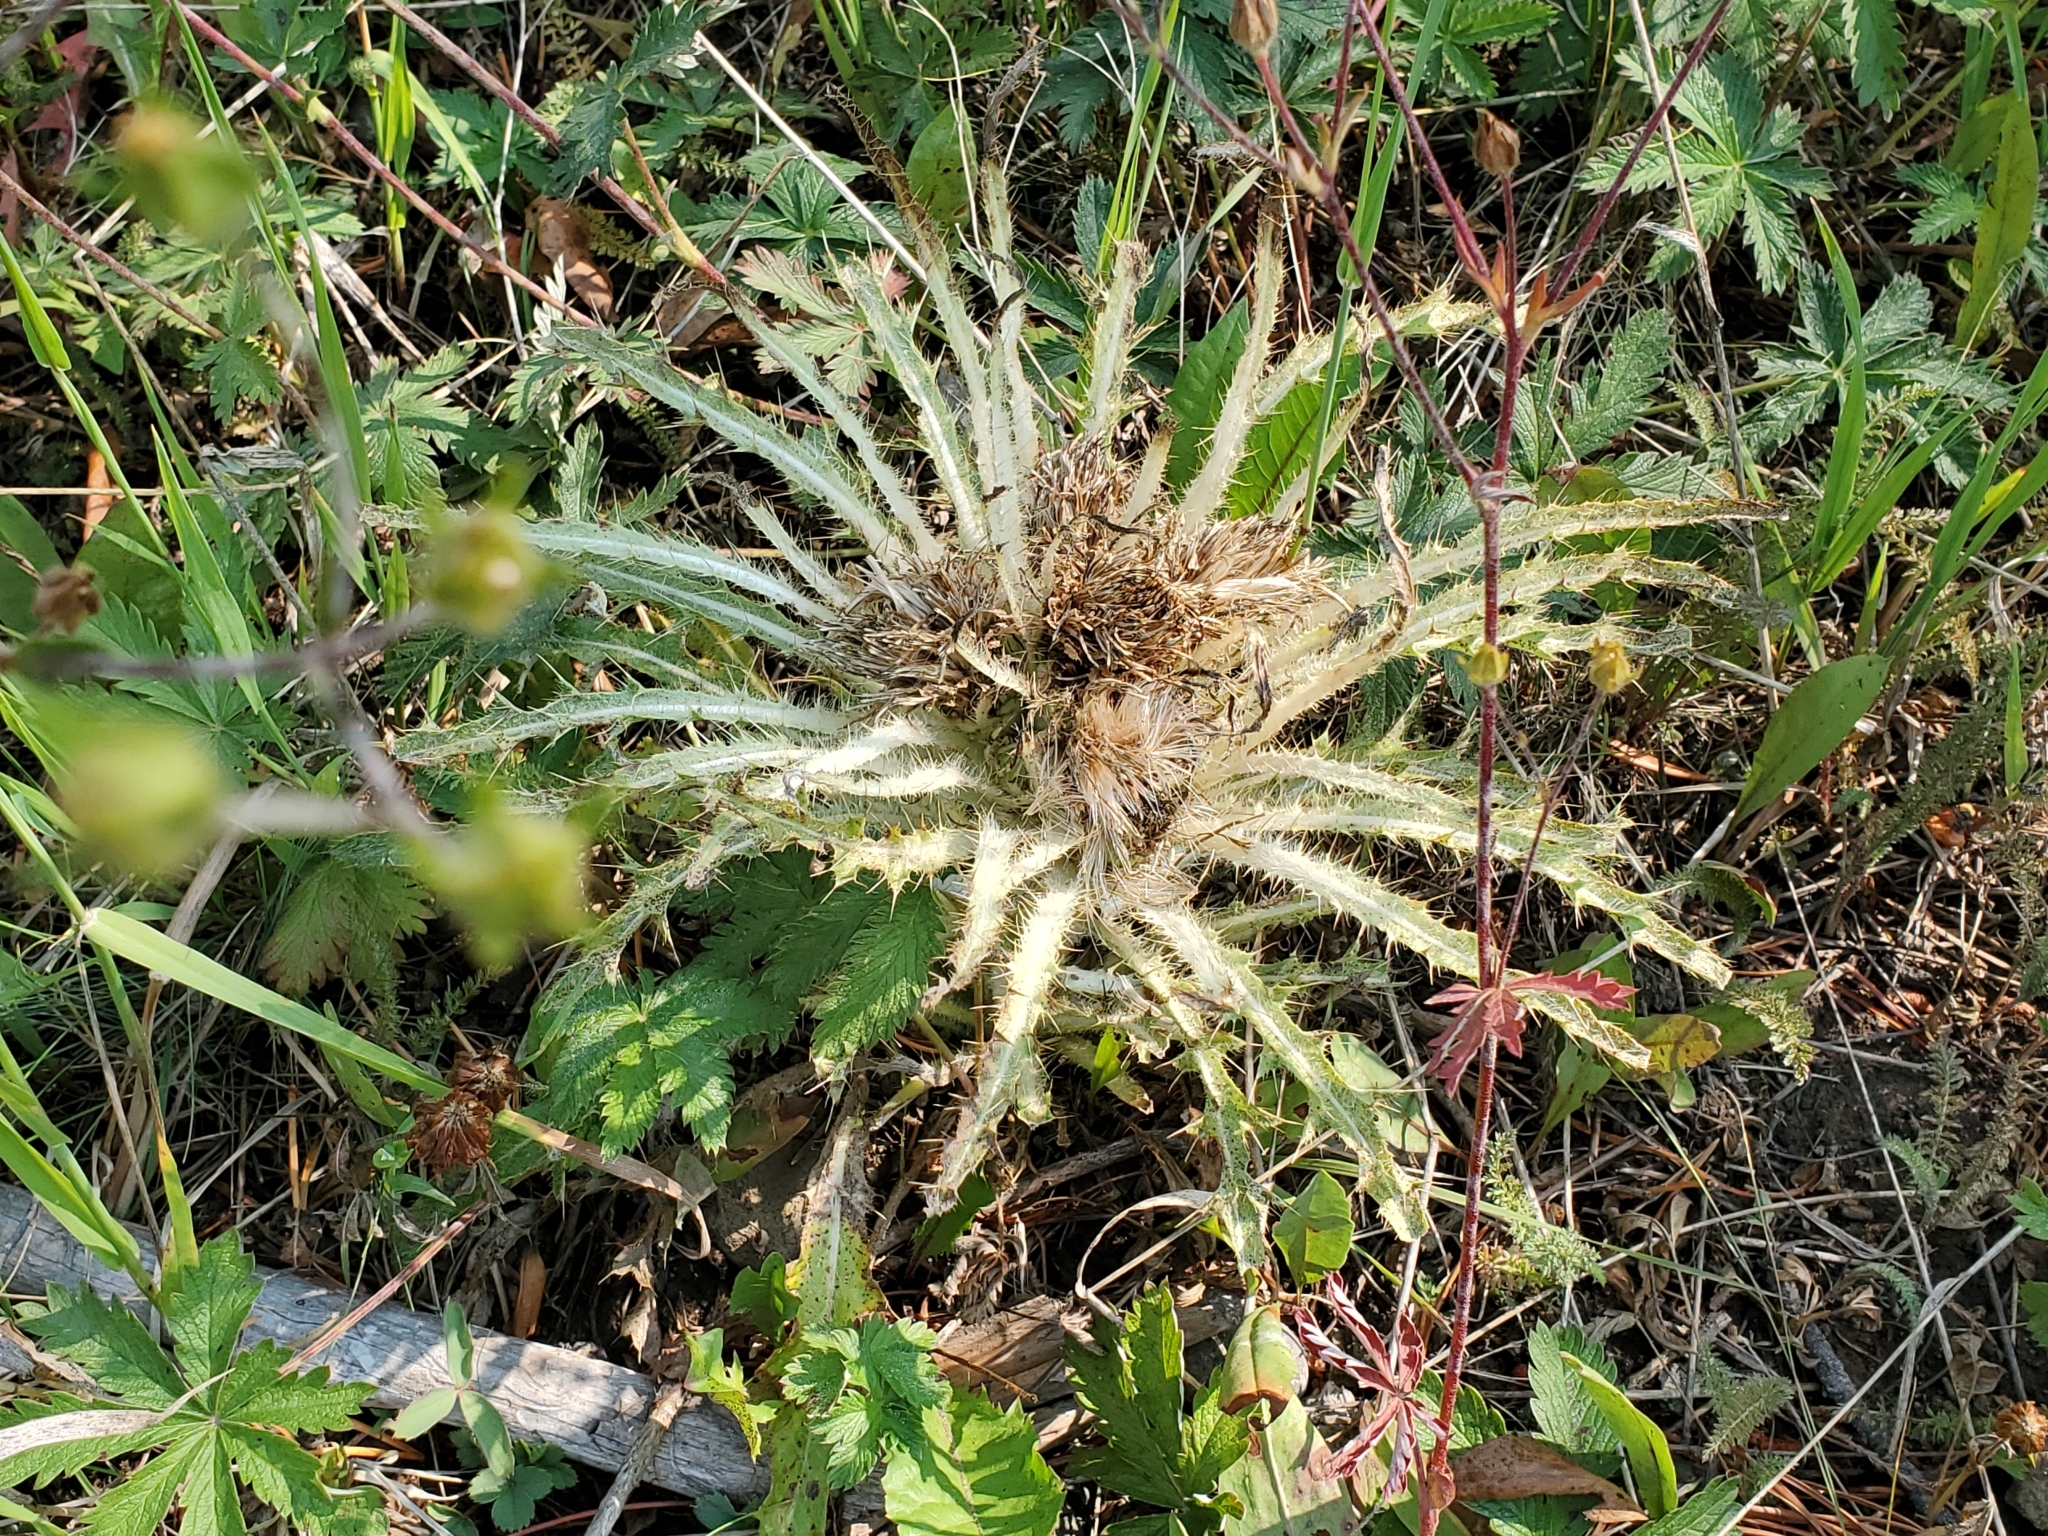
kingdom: Plantae
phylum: Tracheophyta
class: Magnoliopsida
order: Asterales
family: Asteraceae
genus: Cirsium
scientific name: Cirsium scariosum
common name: Meadow thistle
